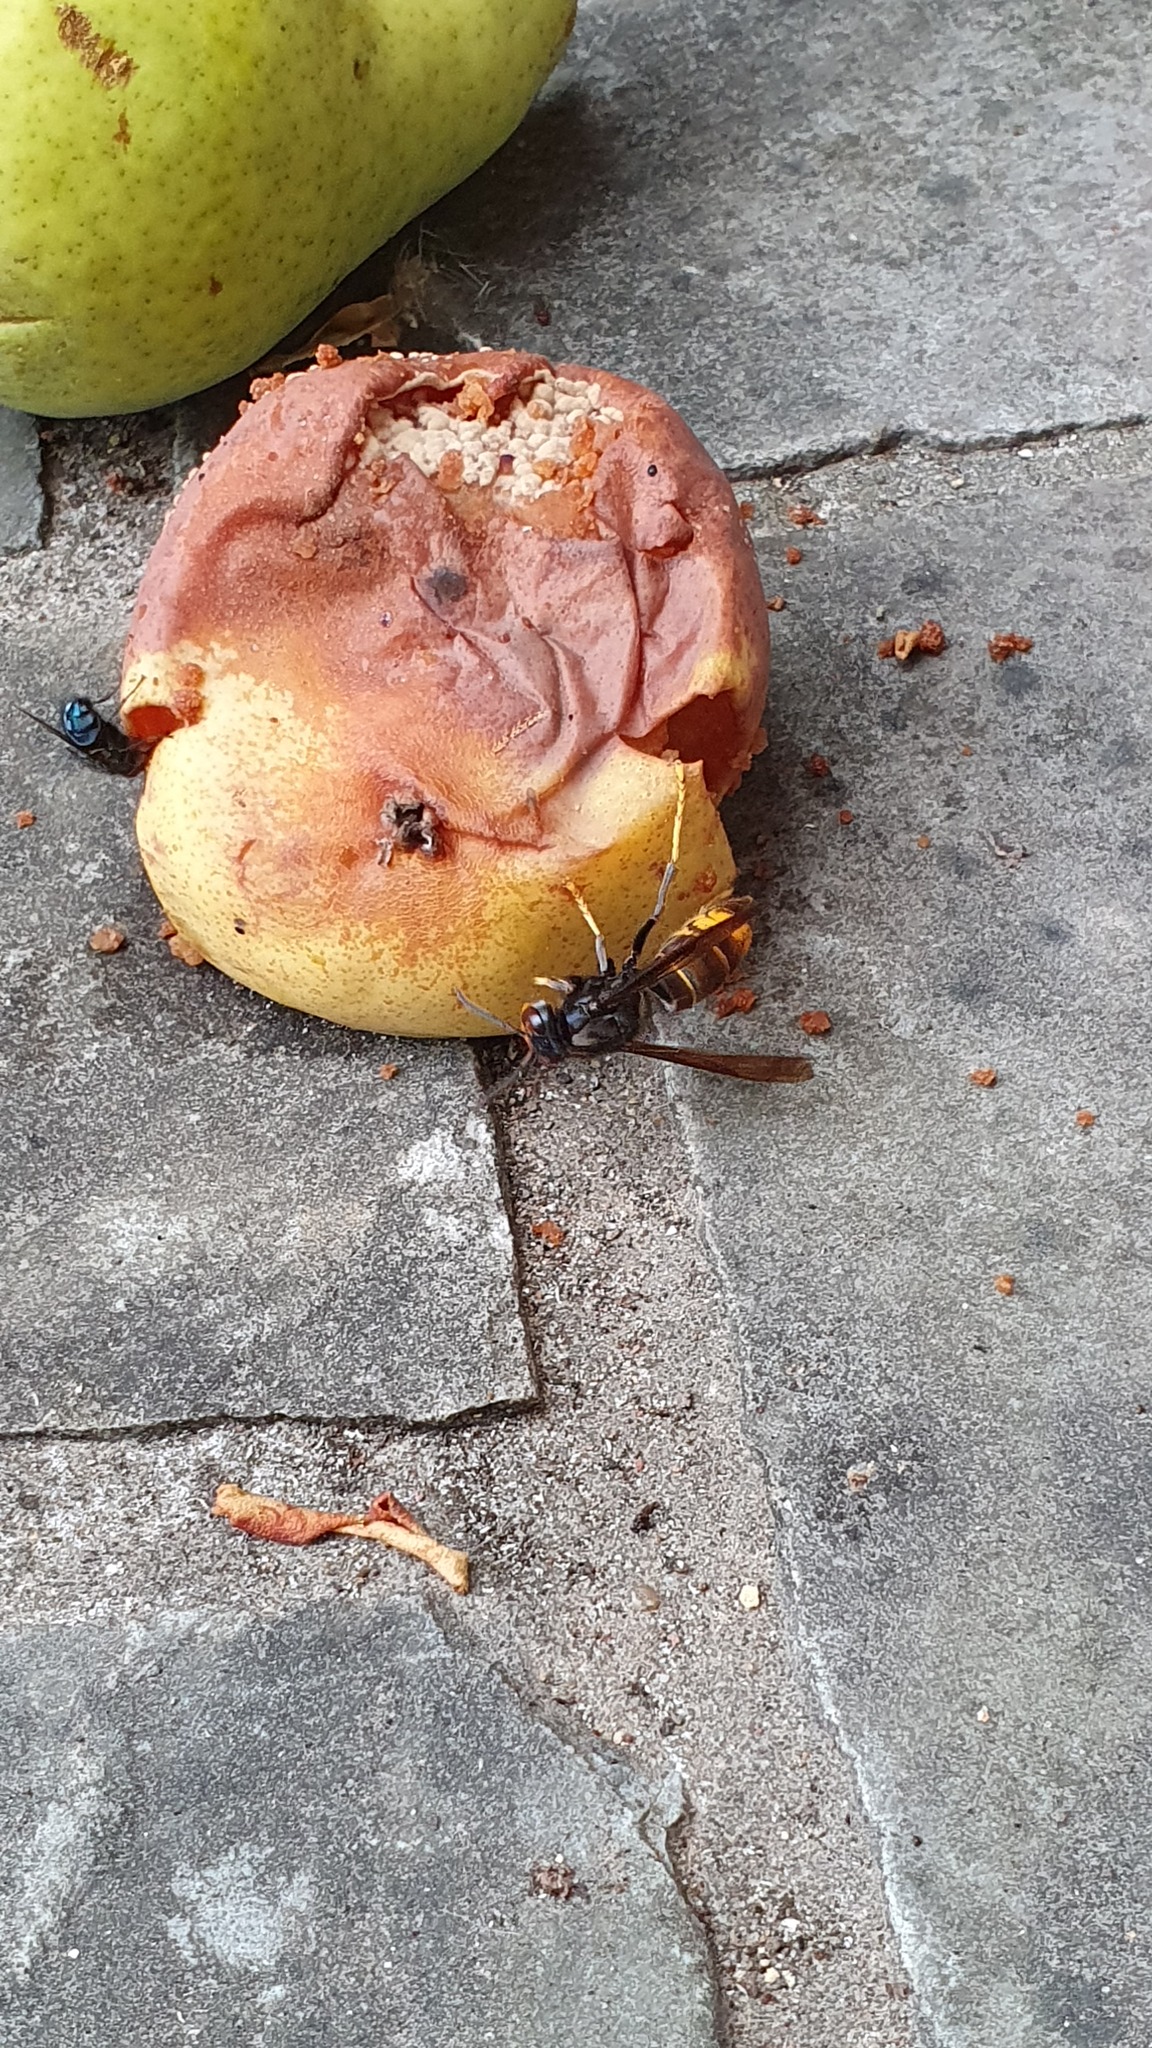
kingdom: Animalia
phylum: Arthropoda
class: Insecta
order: Hymenoptera
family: Vespidae
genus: Vespa
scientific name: Vespa velutina
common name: Asian hornet
